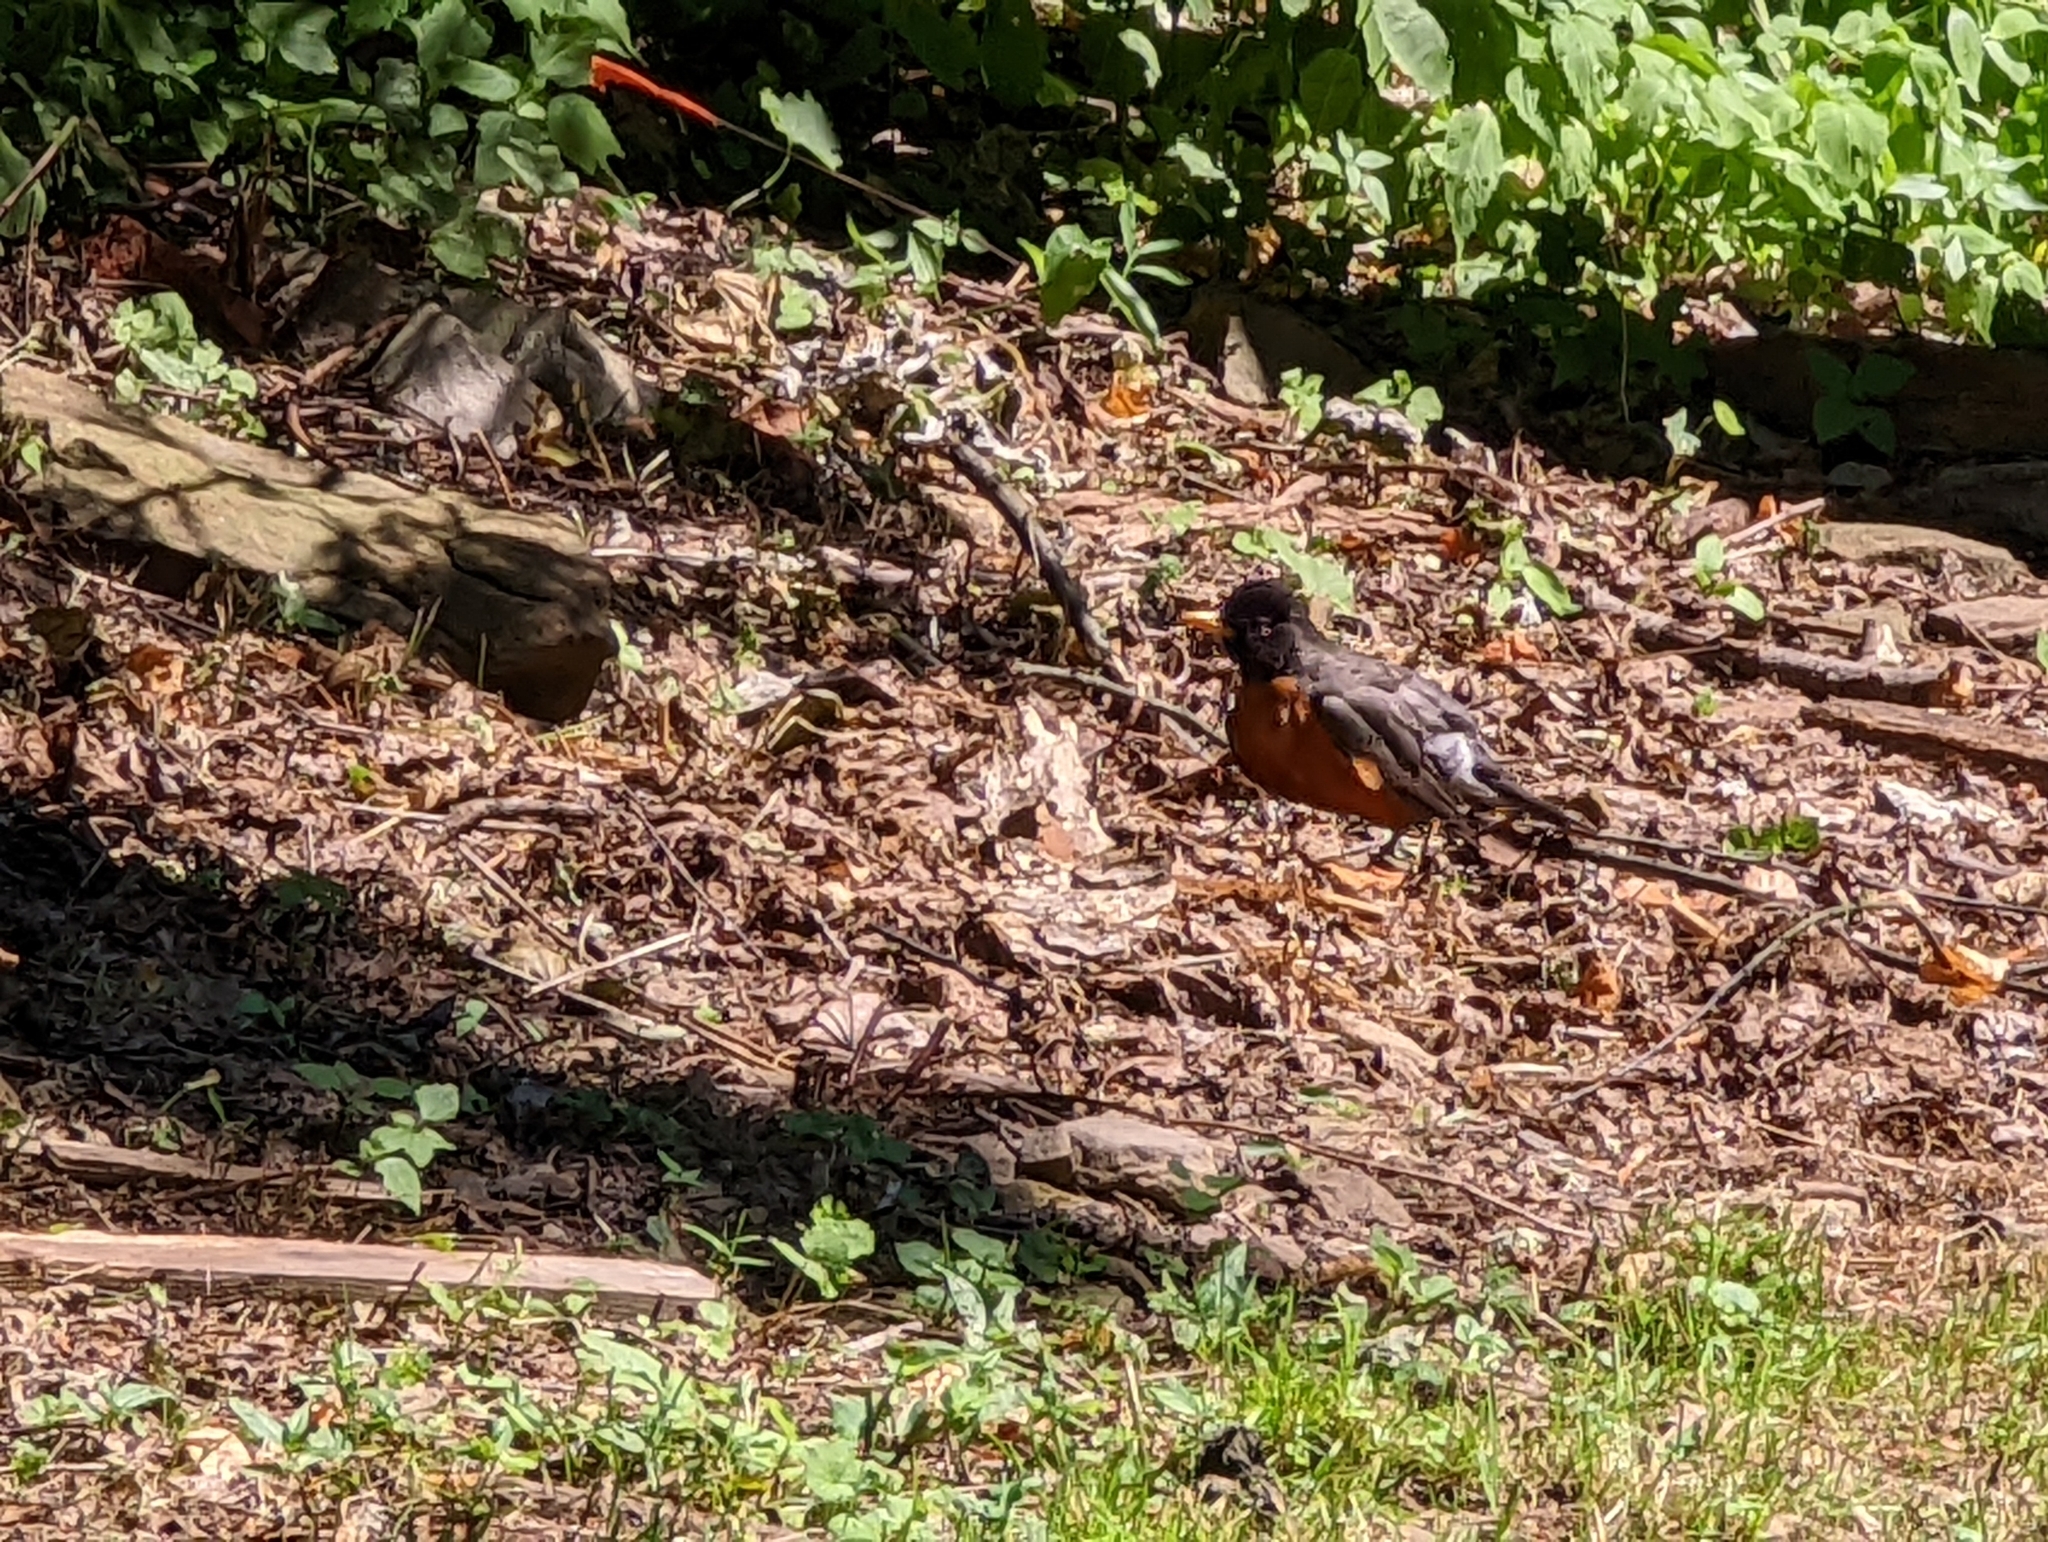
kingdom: Animalia
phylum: Chordata
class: Aves
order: Passeriformes
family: Turdidae
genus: Turdus
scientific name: Turdus migratorius
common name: American robin
